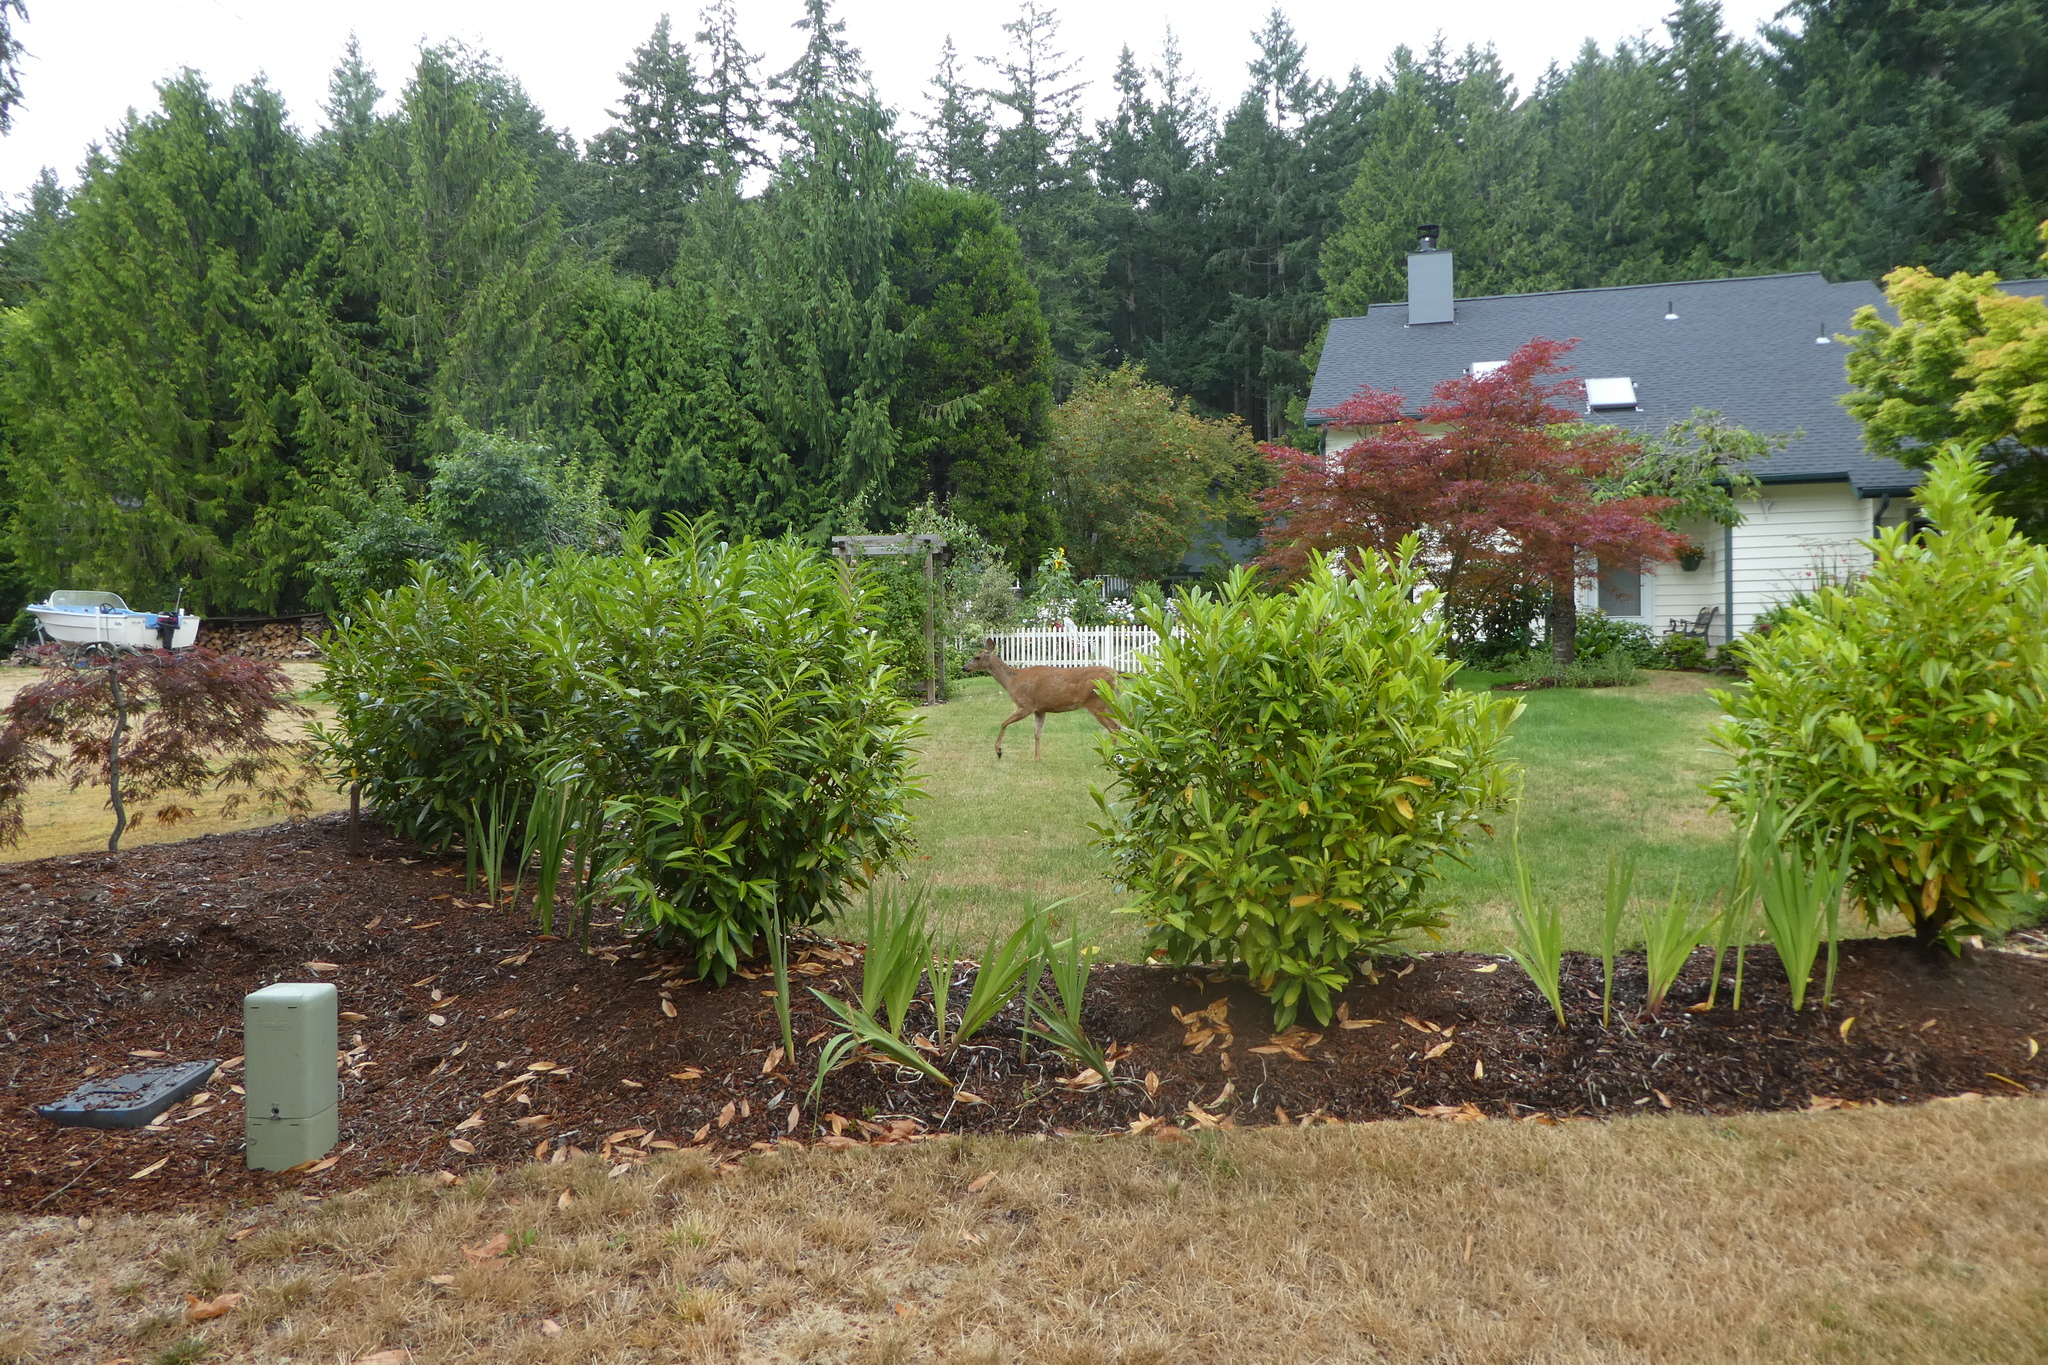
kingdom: Animalia
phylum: Chordata
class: Mammalia
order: Artiodactyla
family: Cervidae
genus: Odocoileus
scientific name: Odocoileus hemionus
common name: Mule deer
